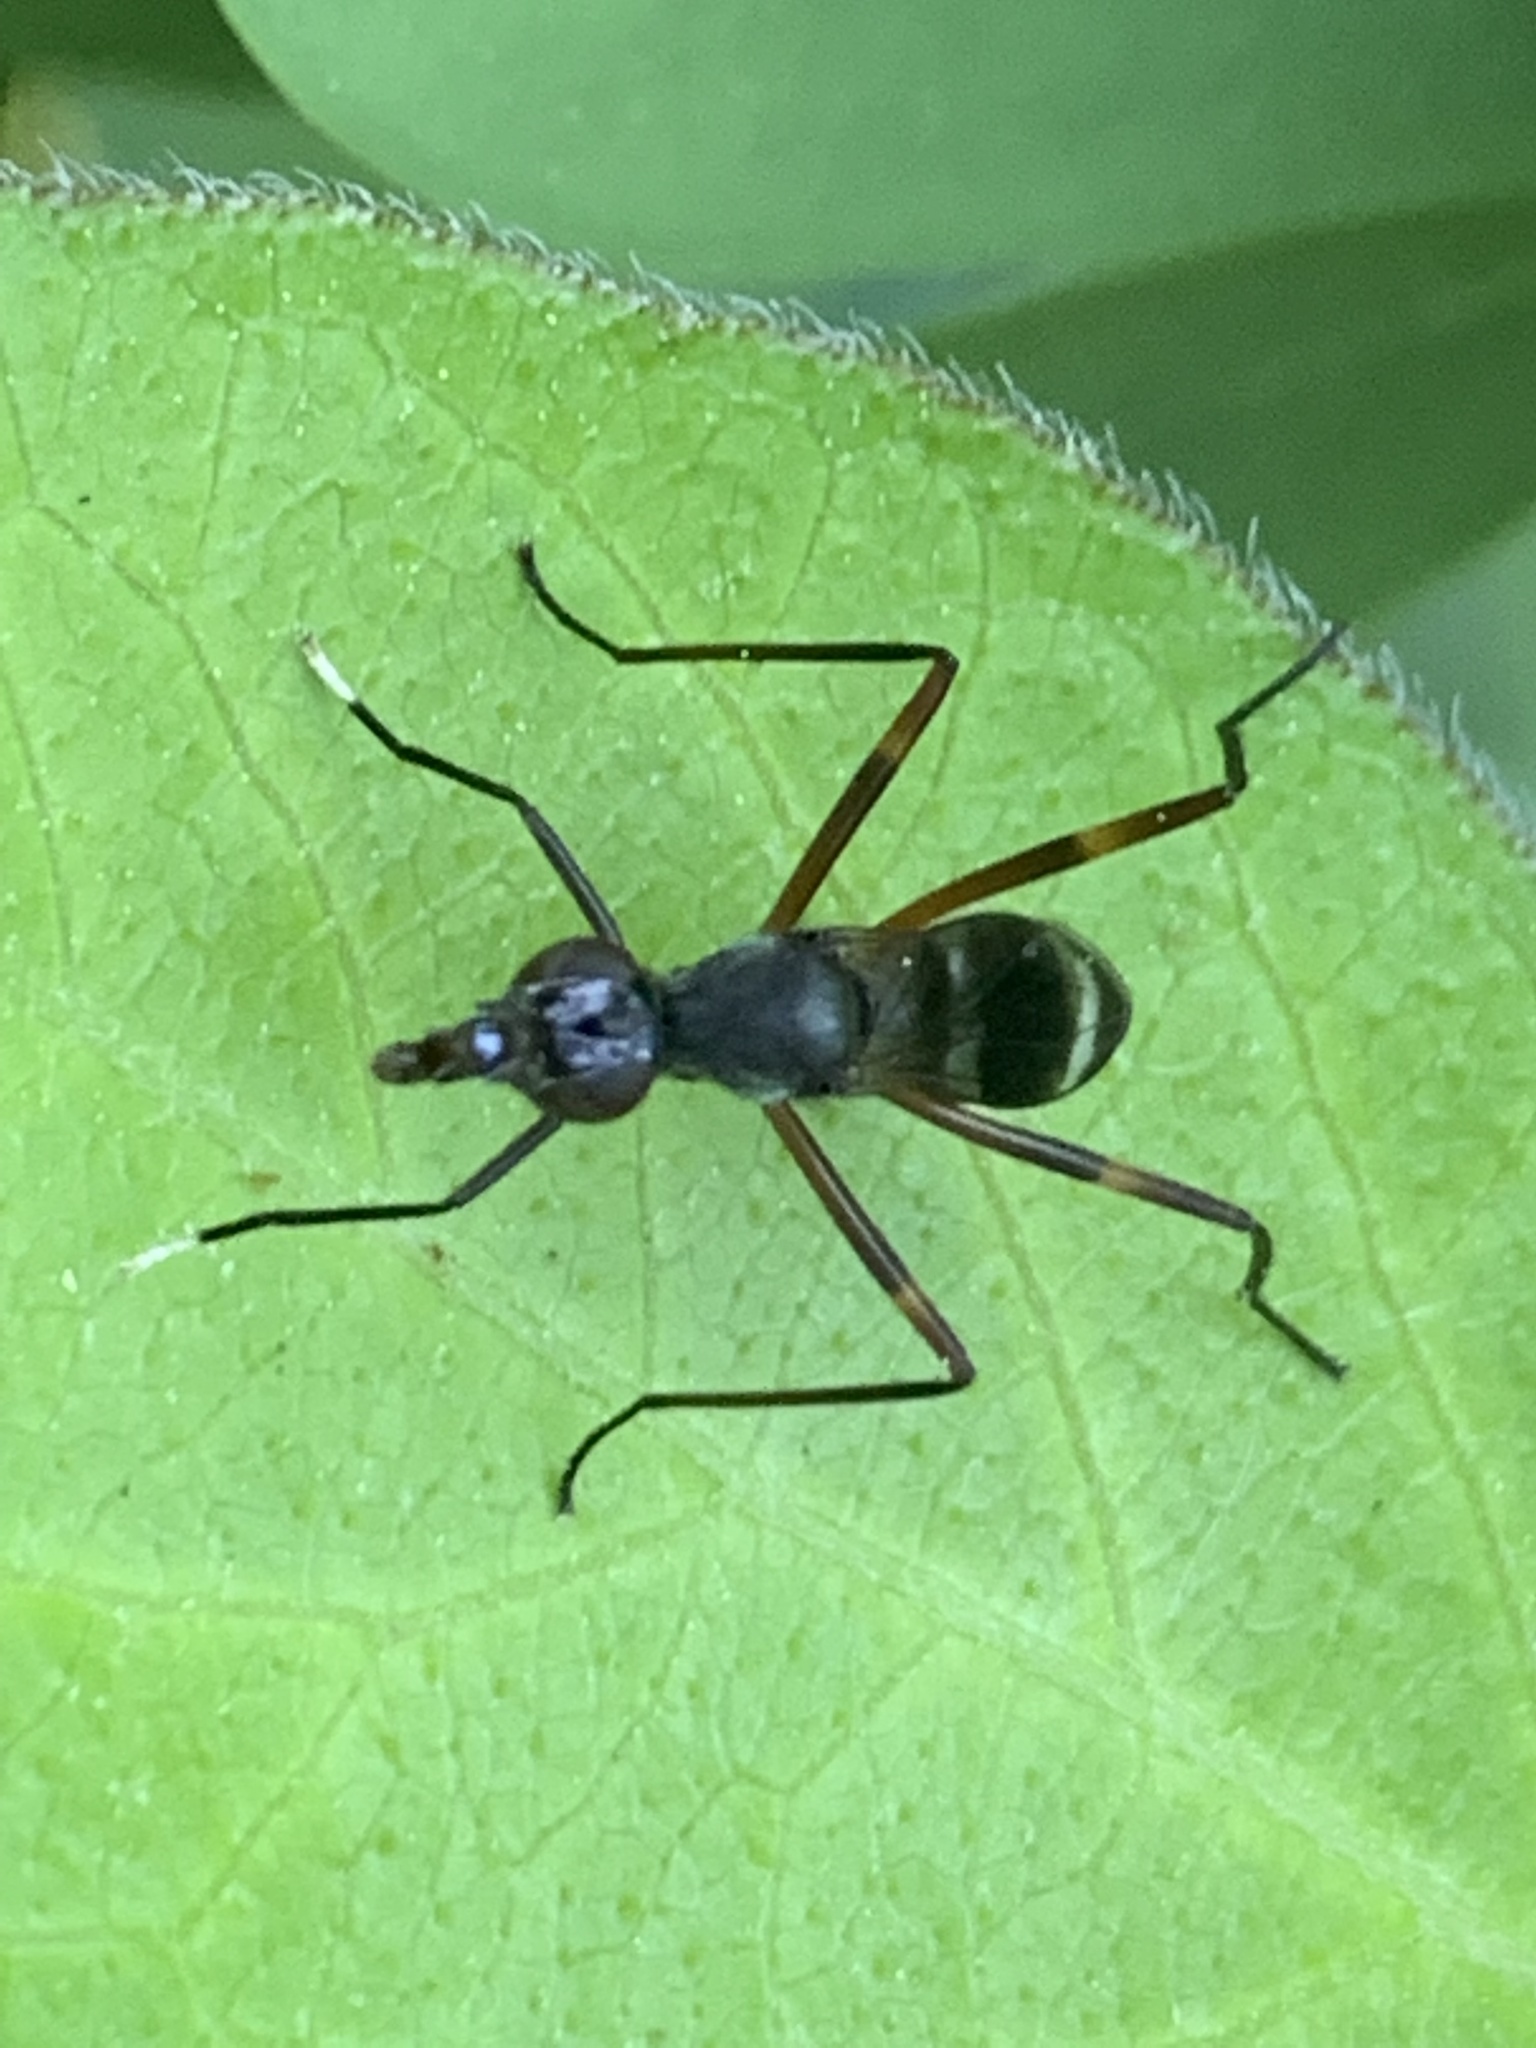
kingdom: Animalia
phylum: Arthropoda
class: Insecta
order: Diptera
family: Micropezidae
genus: Taeniaptera
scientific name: Taeniaptera trivittata
